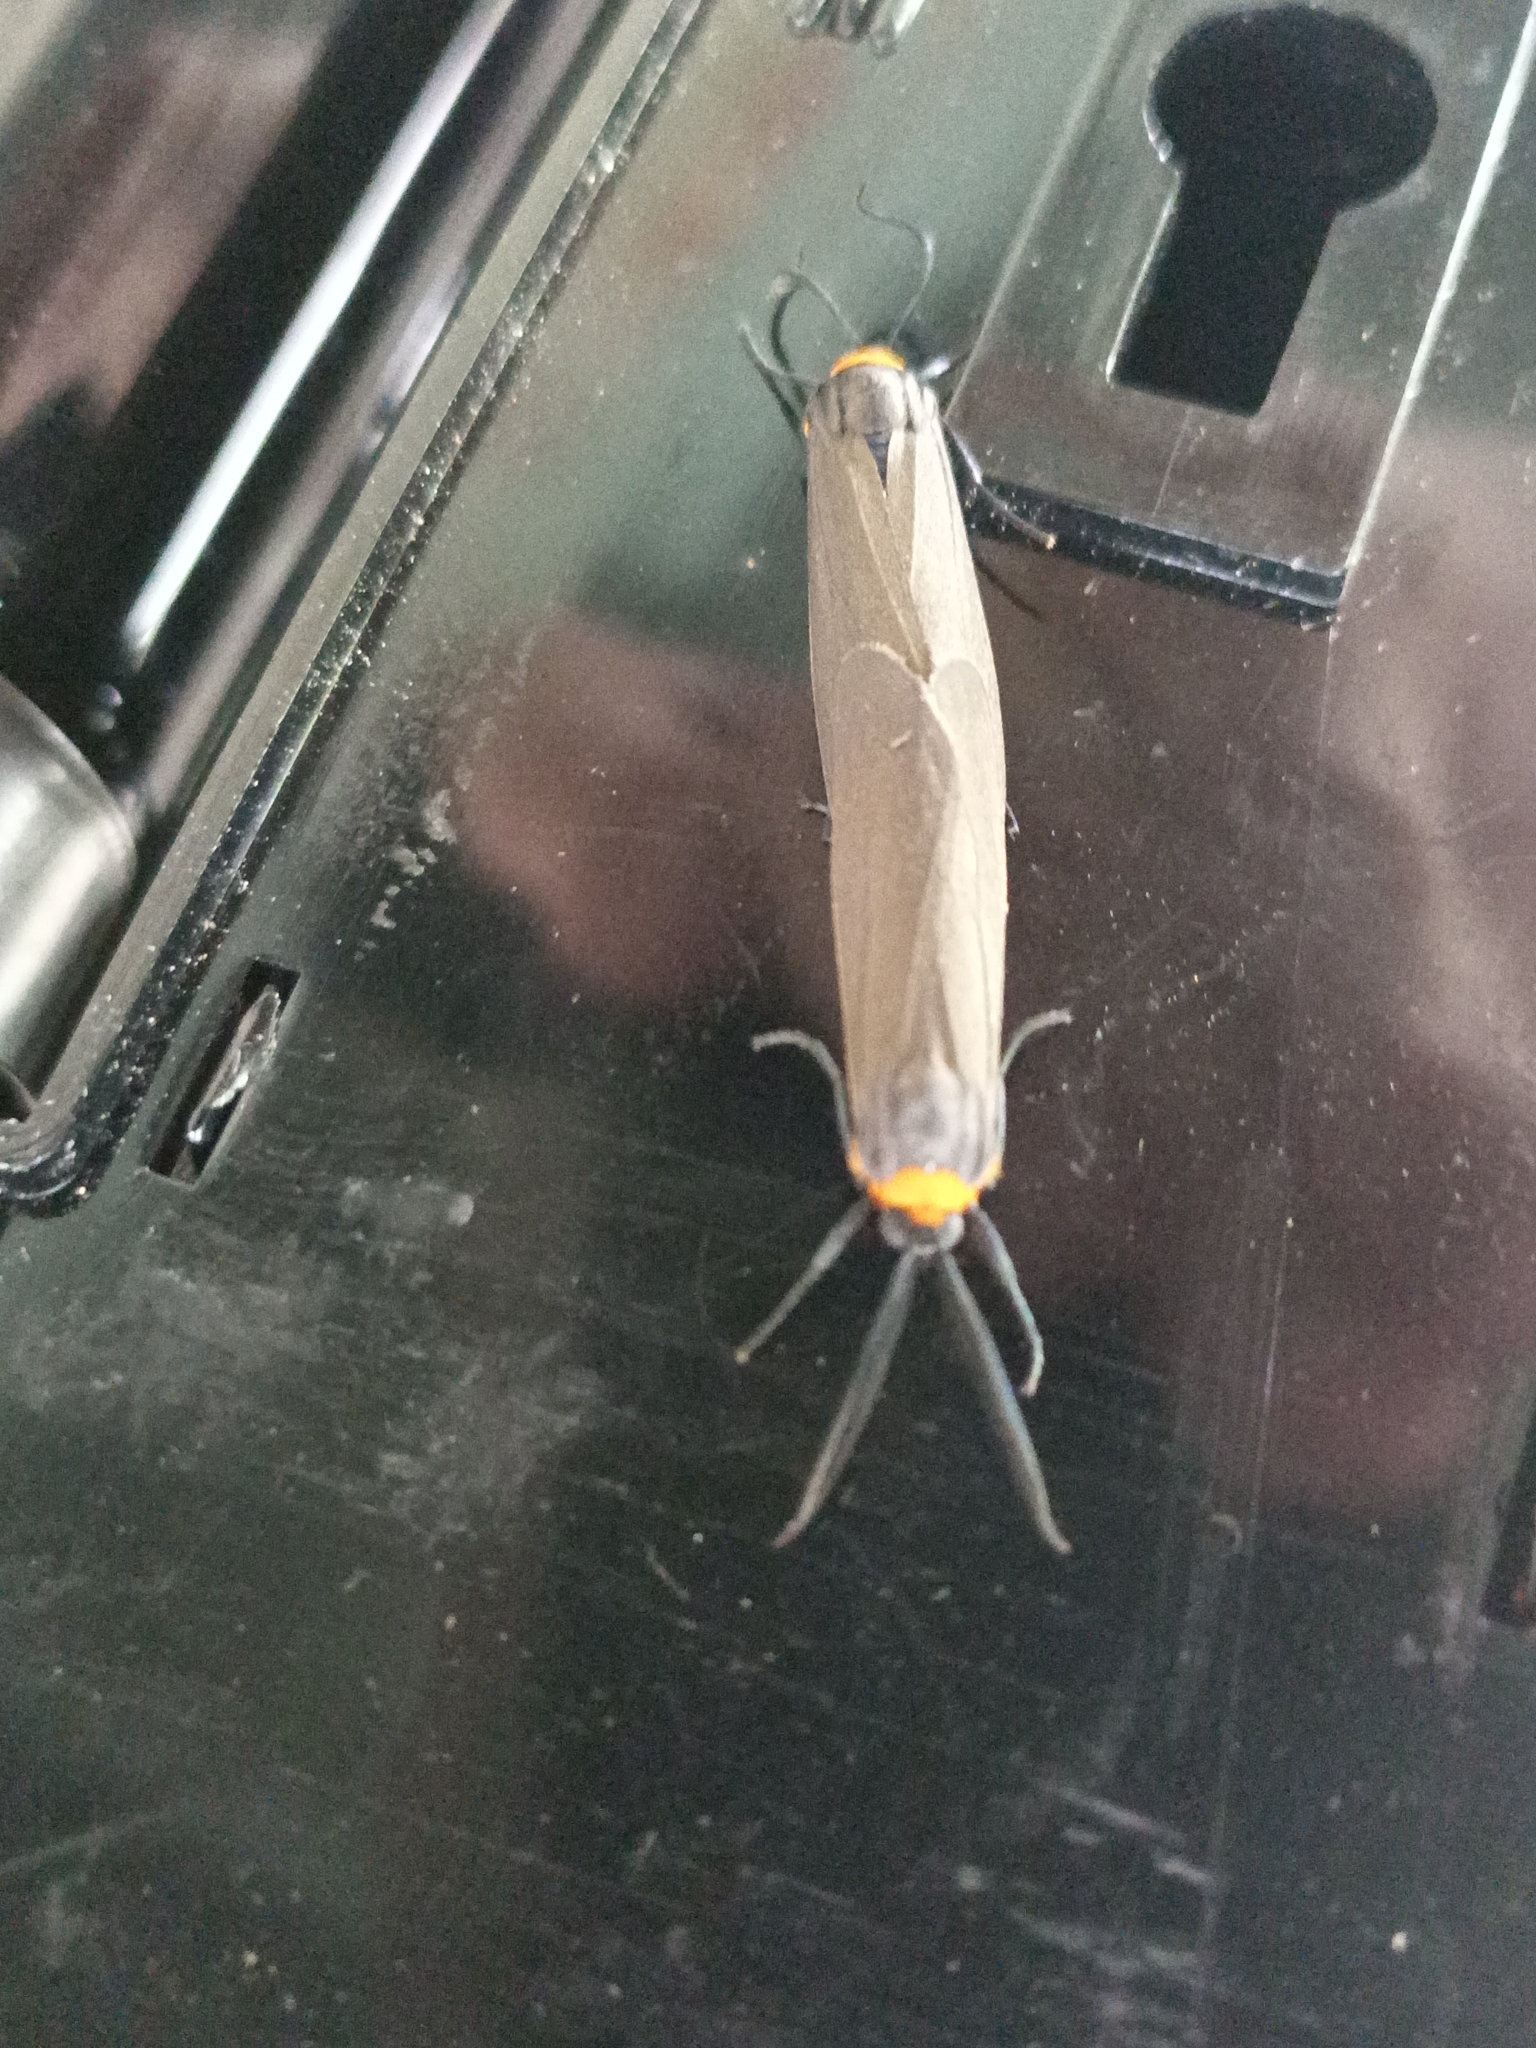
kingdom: Animalia
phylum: Arthropoda
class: Insecta
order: Lepidoptera
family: Erebidae
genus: Cisseps
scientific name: Cisseps fulvicollis
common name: Yellow-collared scape moth
